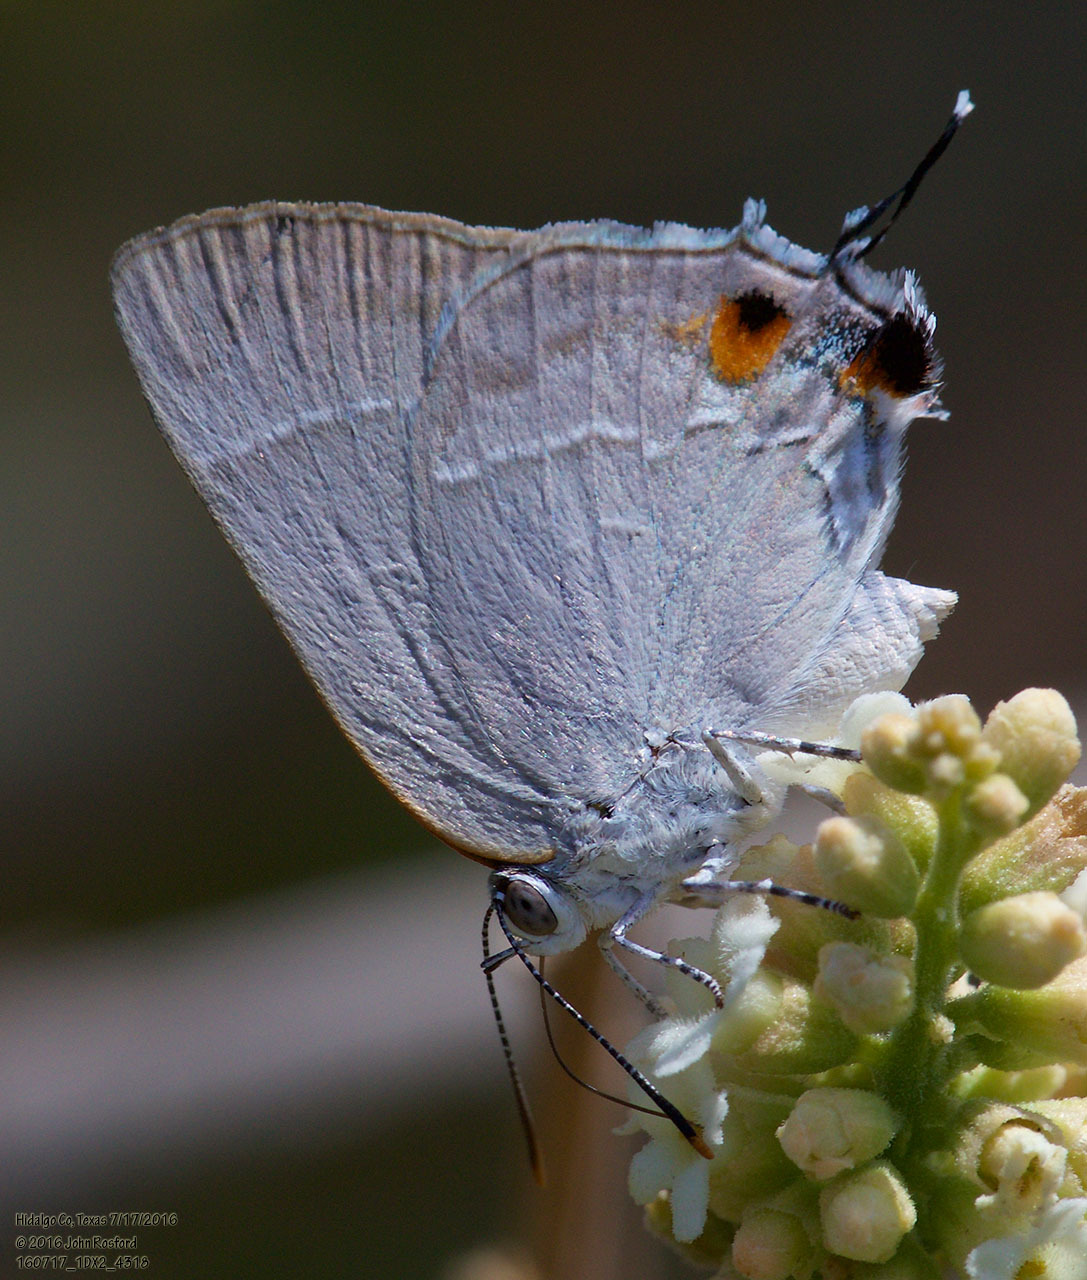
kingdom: Animalia
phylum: Arthropoda
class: Insecta
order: Lepidoptera
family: Lycaenidae
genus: Thecla
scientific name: Thecla marius
